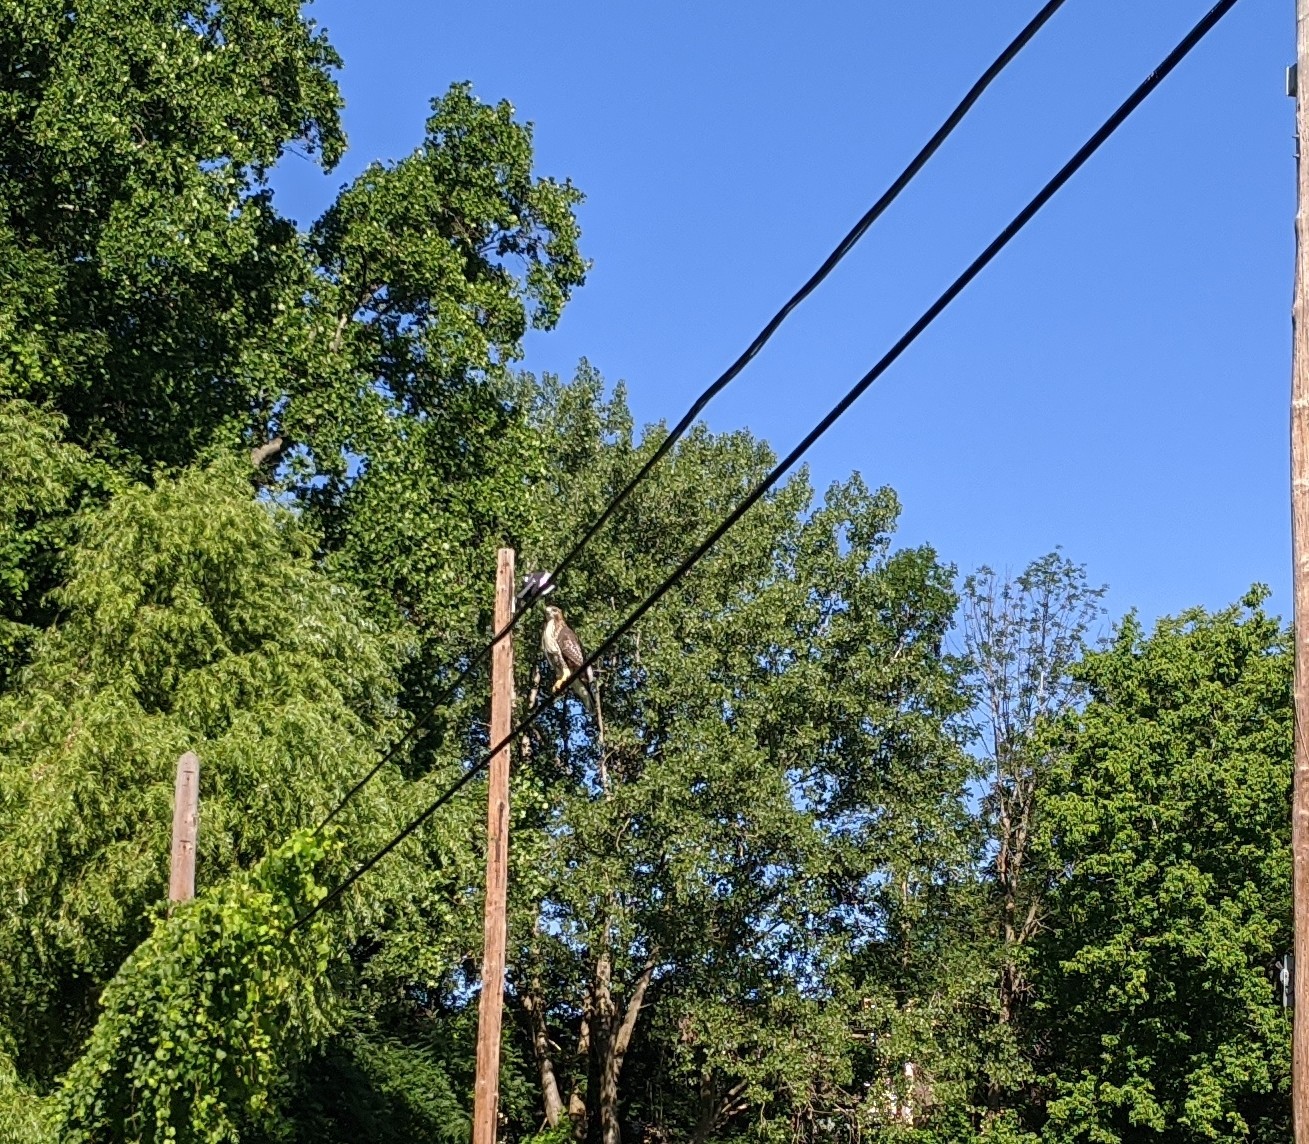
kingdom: Animalia
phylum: Chordata
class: Aves
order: Accipitriformes
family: Accipitridae
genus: Accipiter
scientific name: Accipiter cooperii
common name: Cooper's hawk
